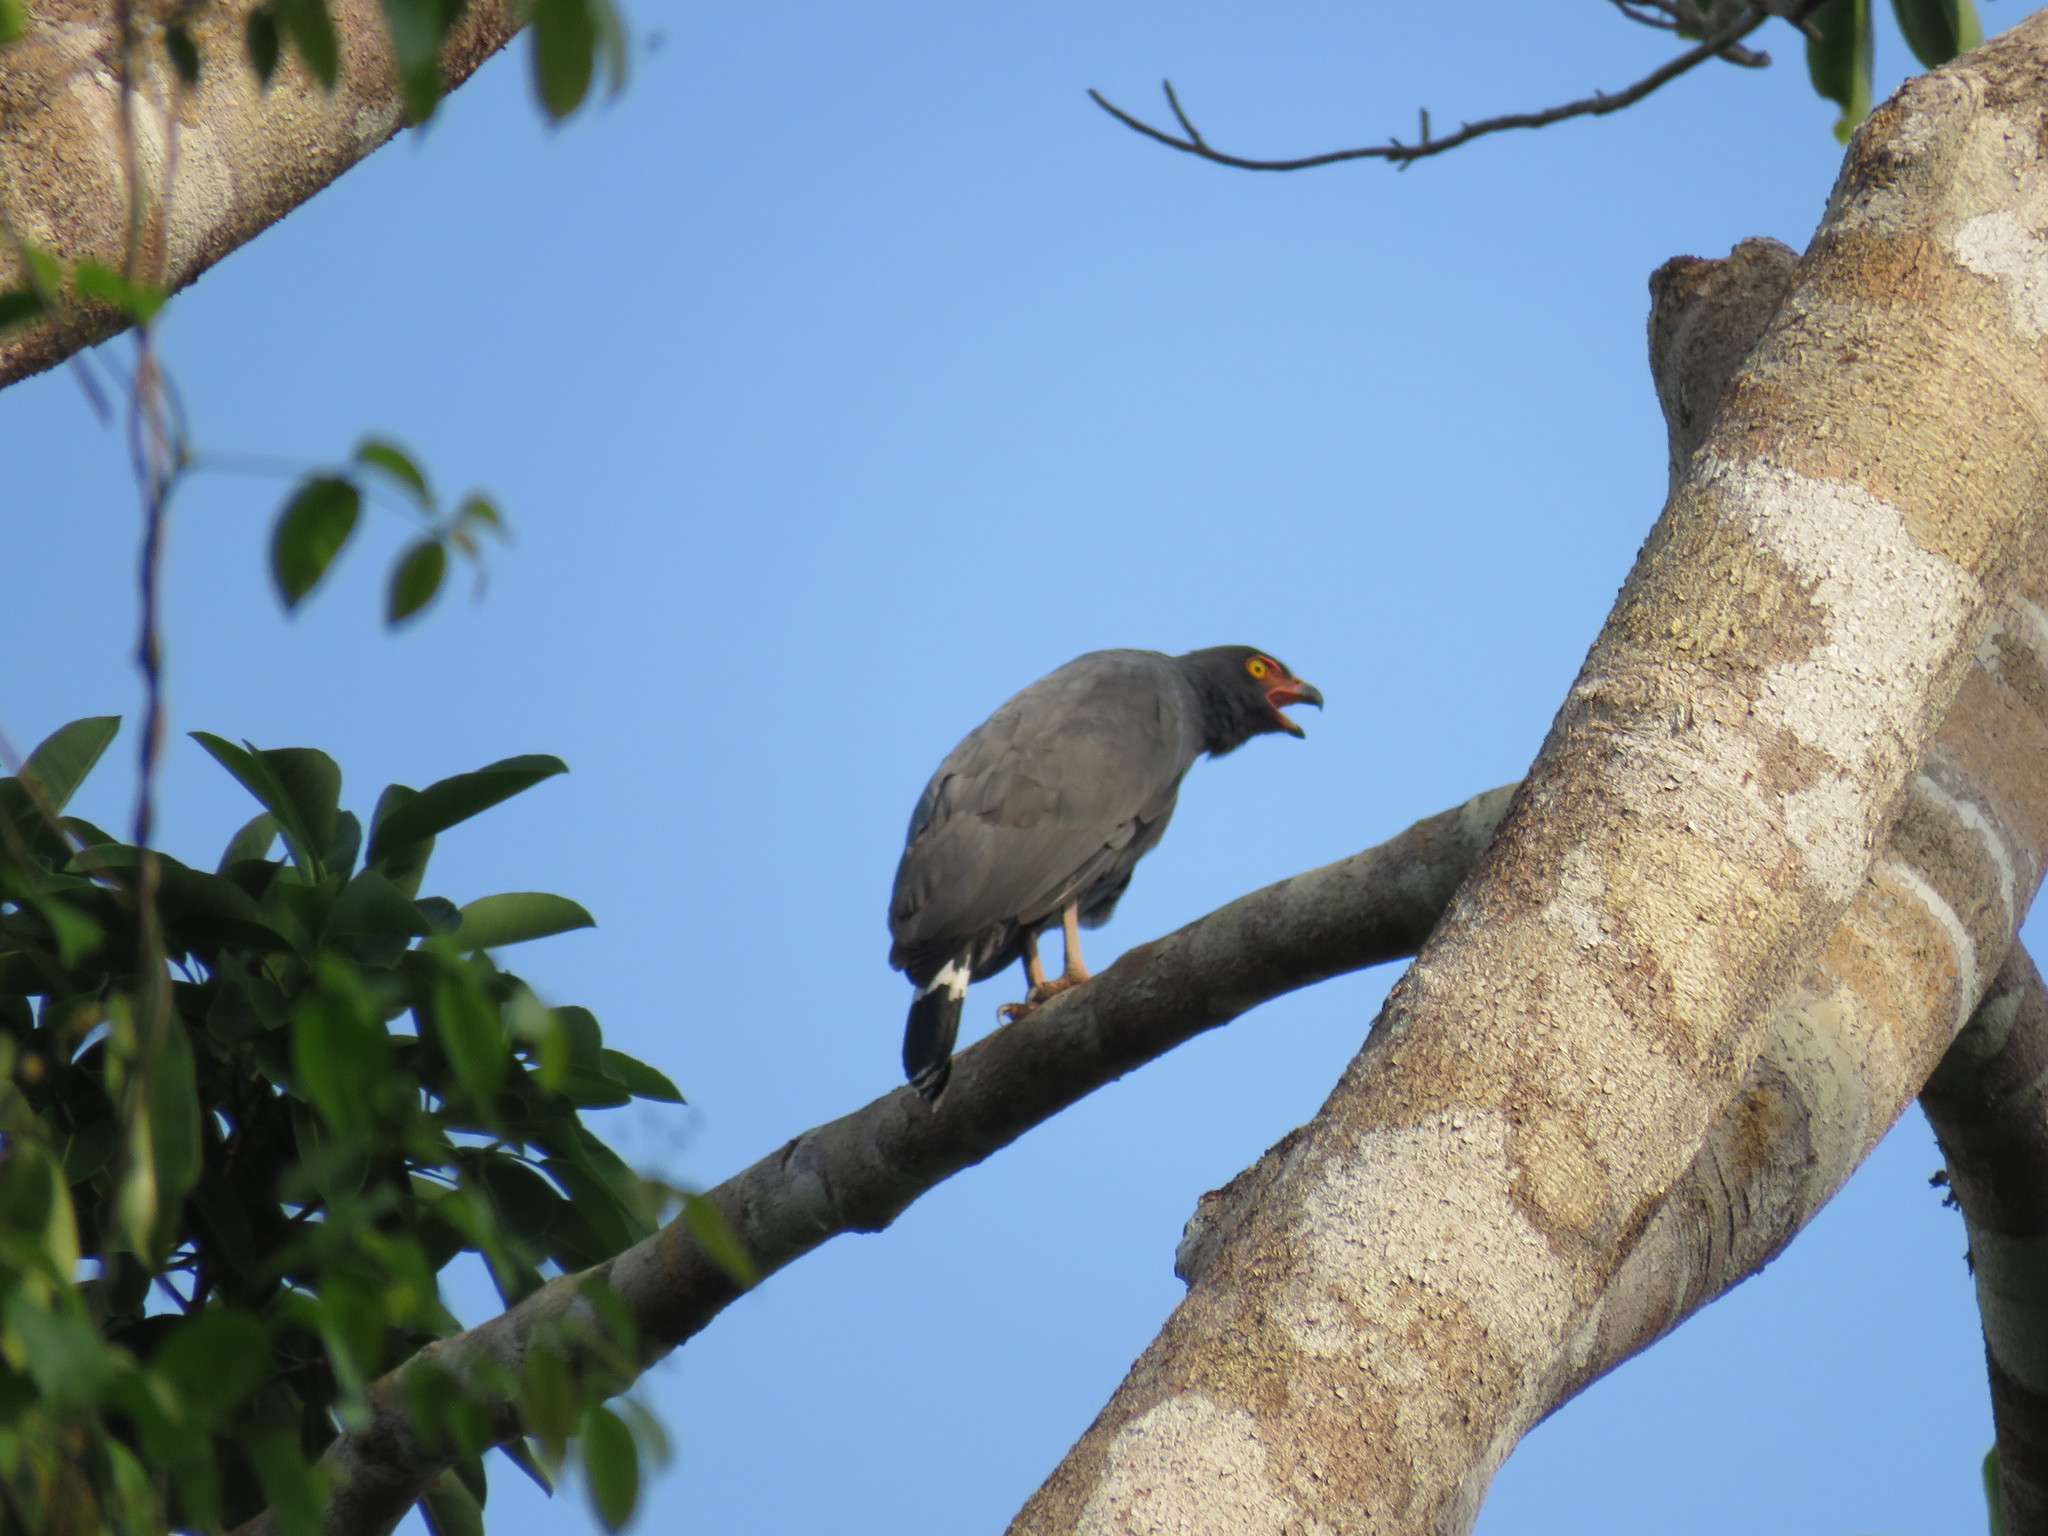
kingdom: Animalia
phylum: Chordata
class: Aves
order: Accipitriformes
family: Accipitridae
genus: Leucopternis
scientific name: Leucopternis schistaceus
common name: Slate-colored hawk
